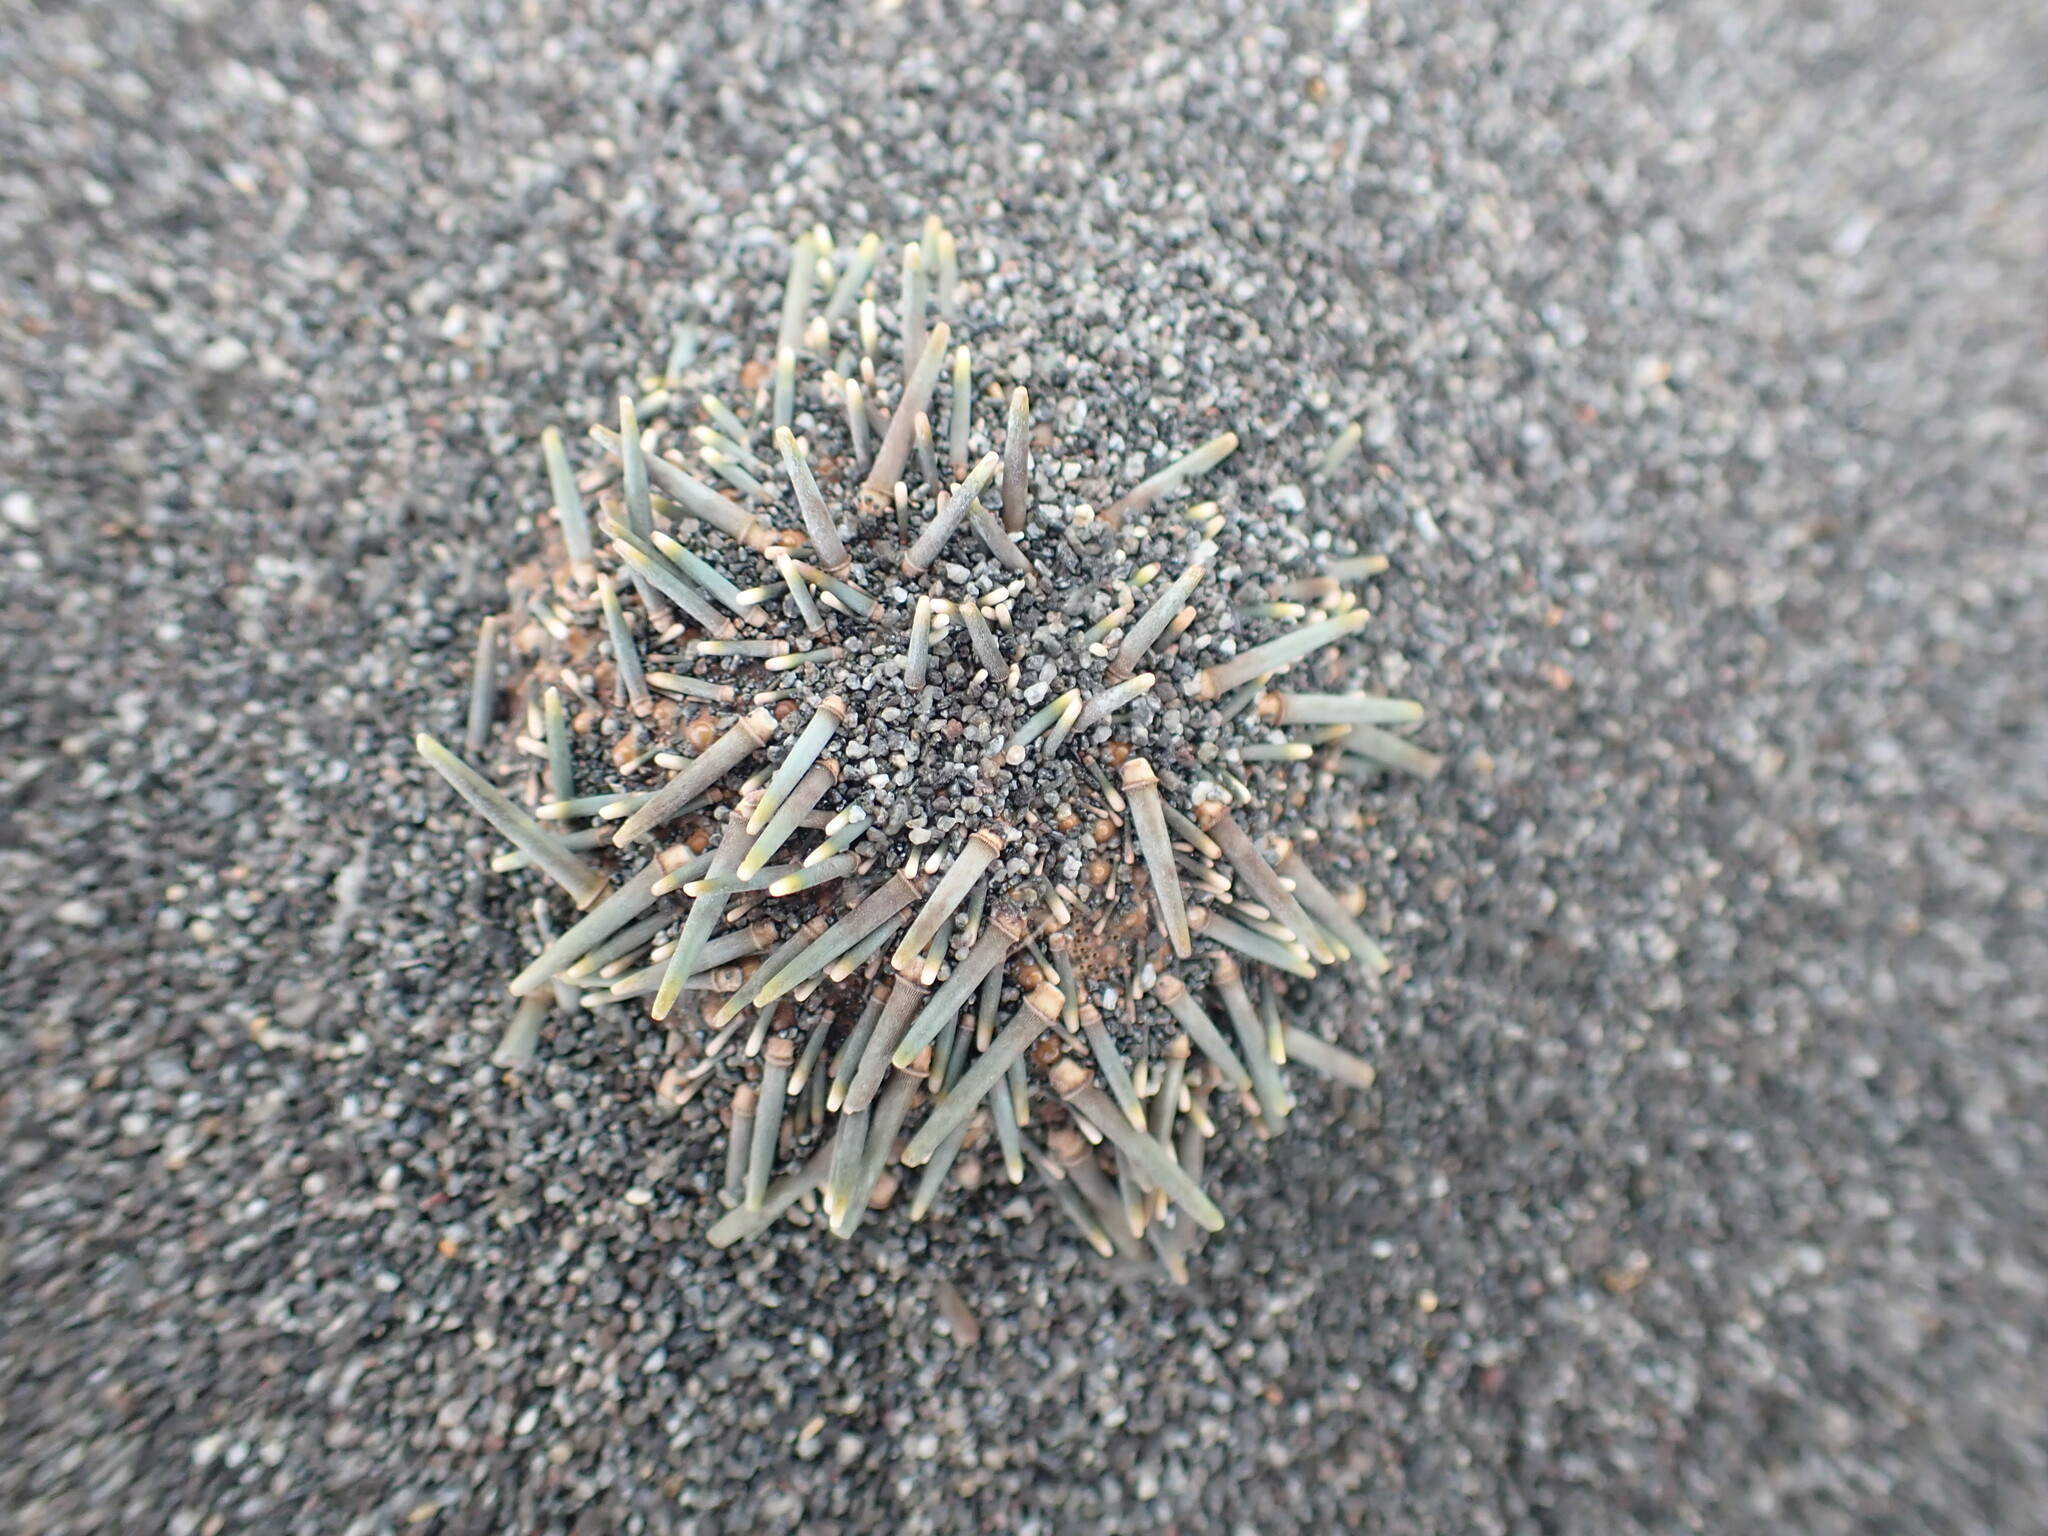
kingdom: Animalia
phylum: Echinodermata
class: Echinoidea
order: Camarodonta
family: Echinometridae
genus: Evechinus
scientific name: Evechinus chloroticus
